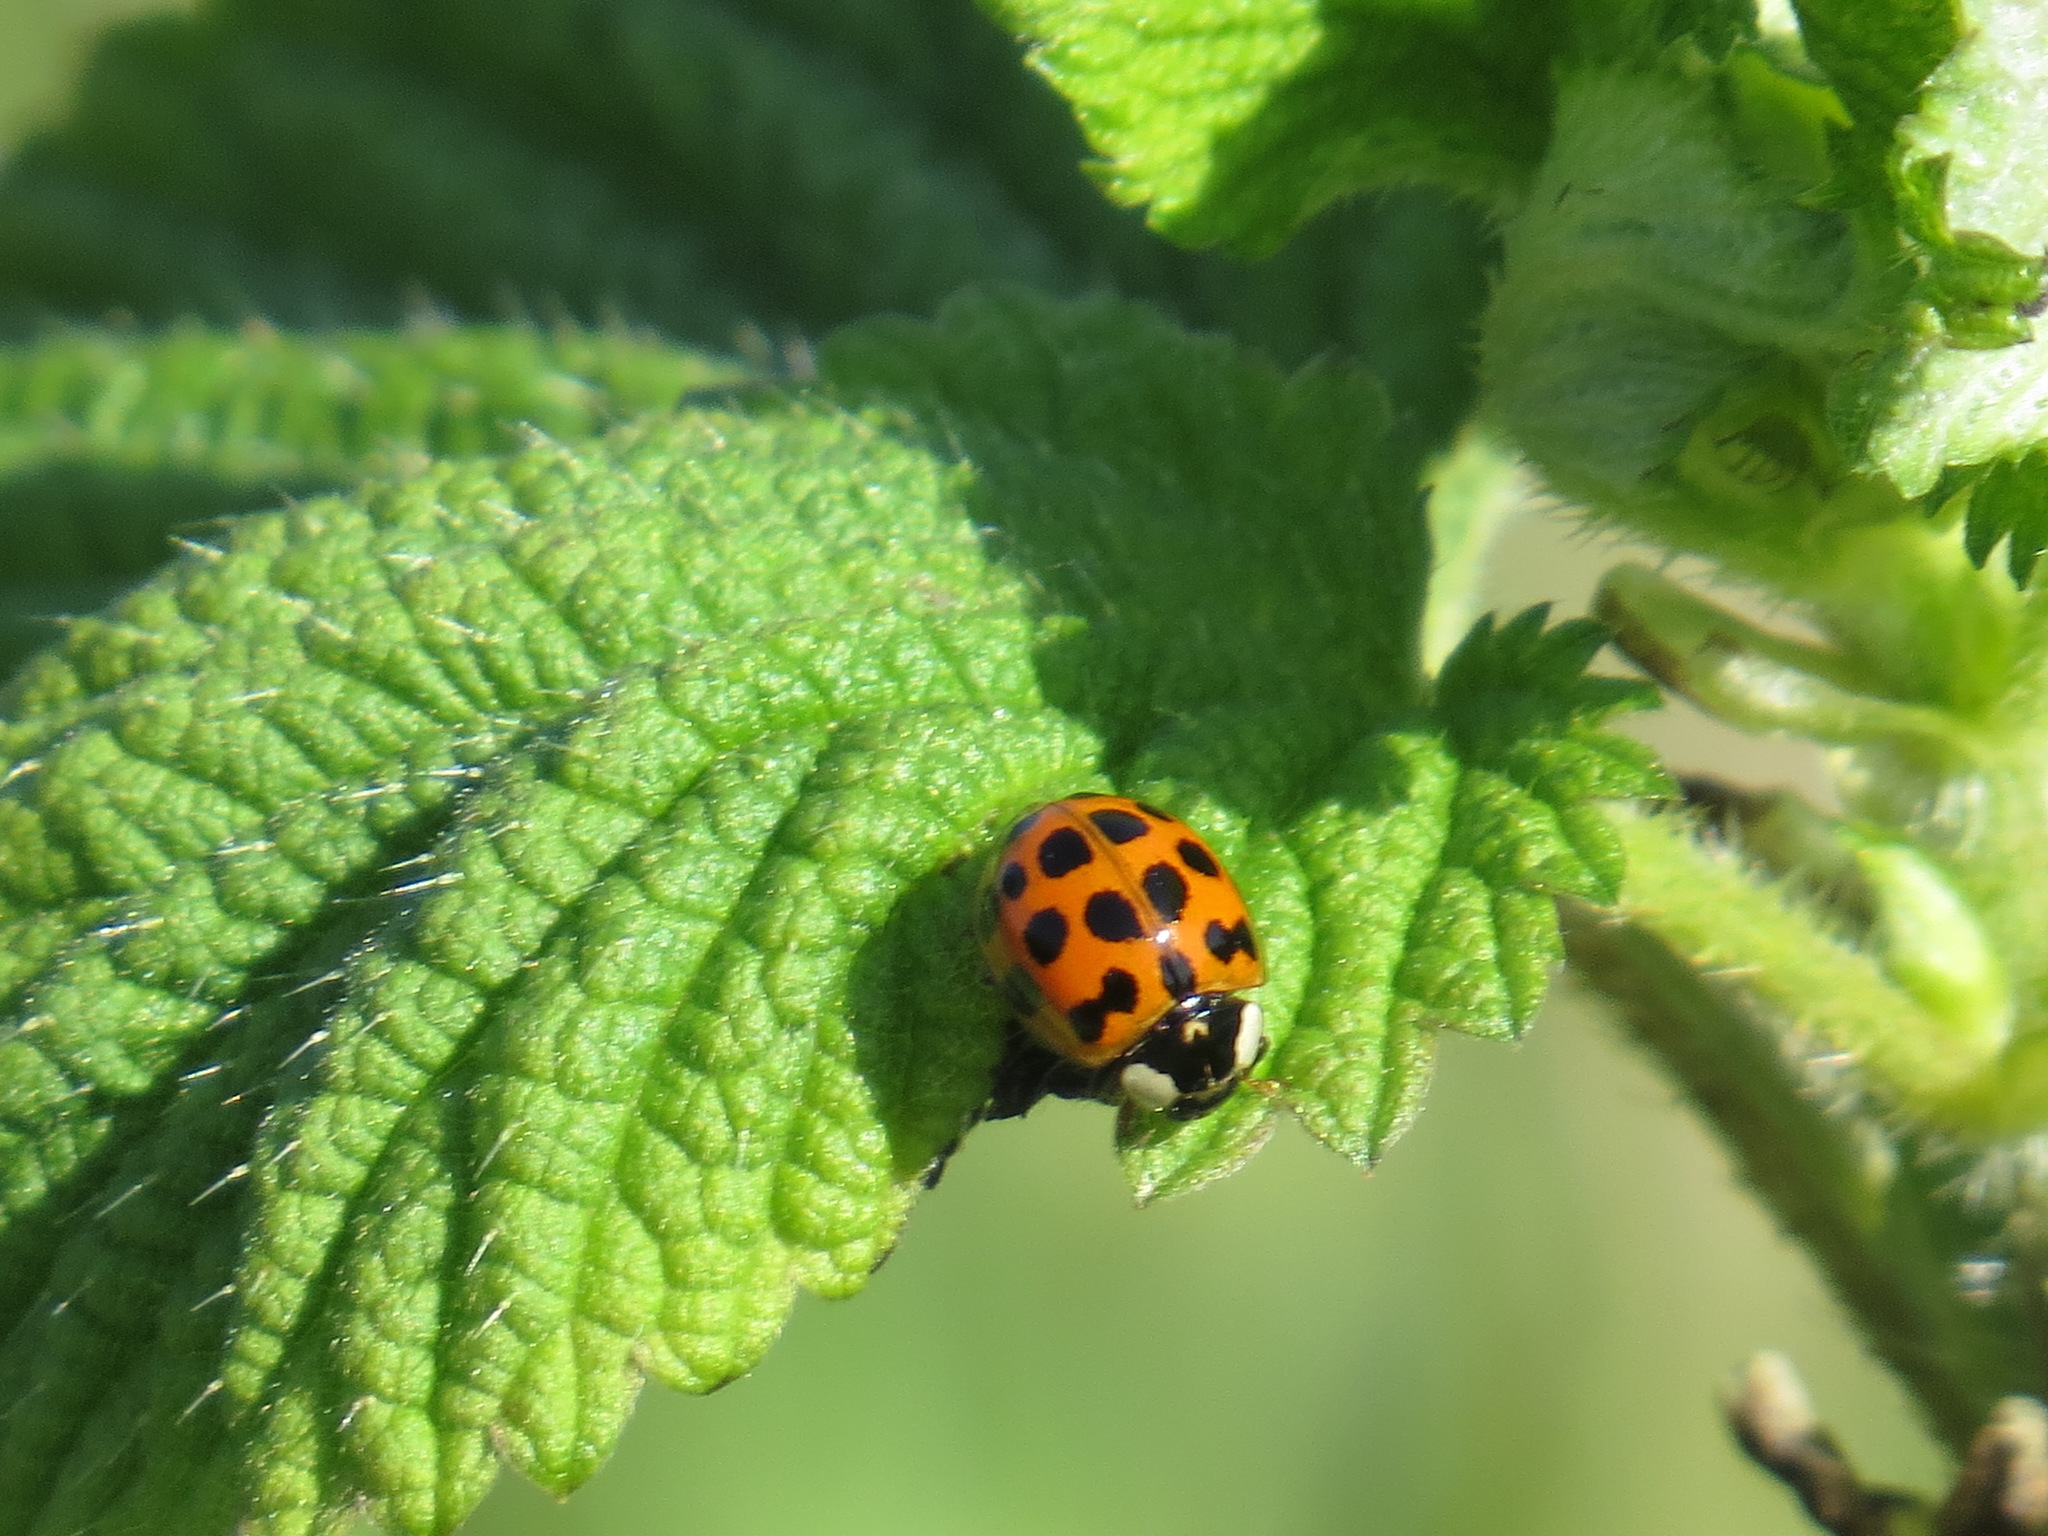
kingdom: Animalia
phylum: Arthropoda
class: Insecta
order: Coleoptera
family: Coccinellidae
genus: Harmonia
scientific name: Harmonia axyridis
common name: Harlequin ladybird
